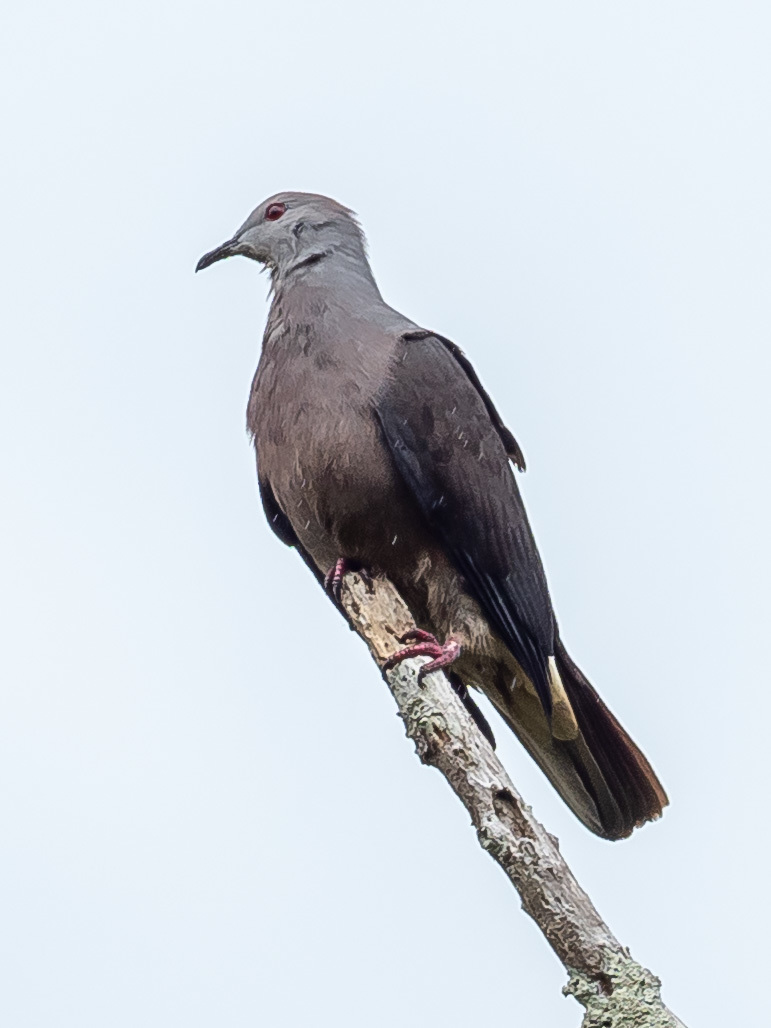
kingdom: Animalia
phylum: Chordata
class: Aves
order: Columbiformes
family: Columbidae
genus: Ducula
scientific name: Ducula latrans
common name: Barking imperial pigeon
